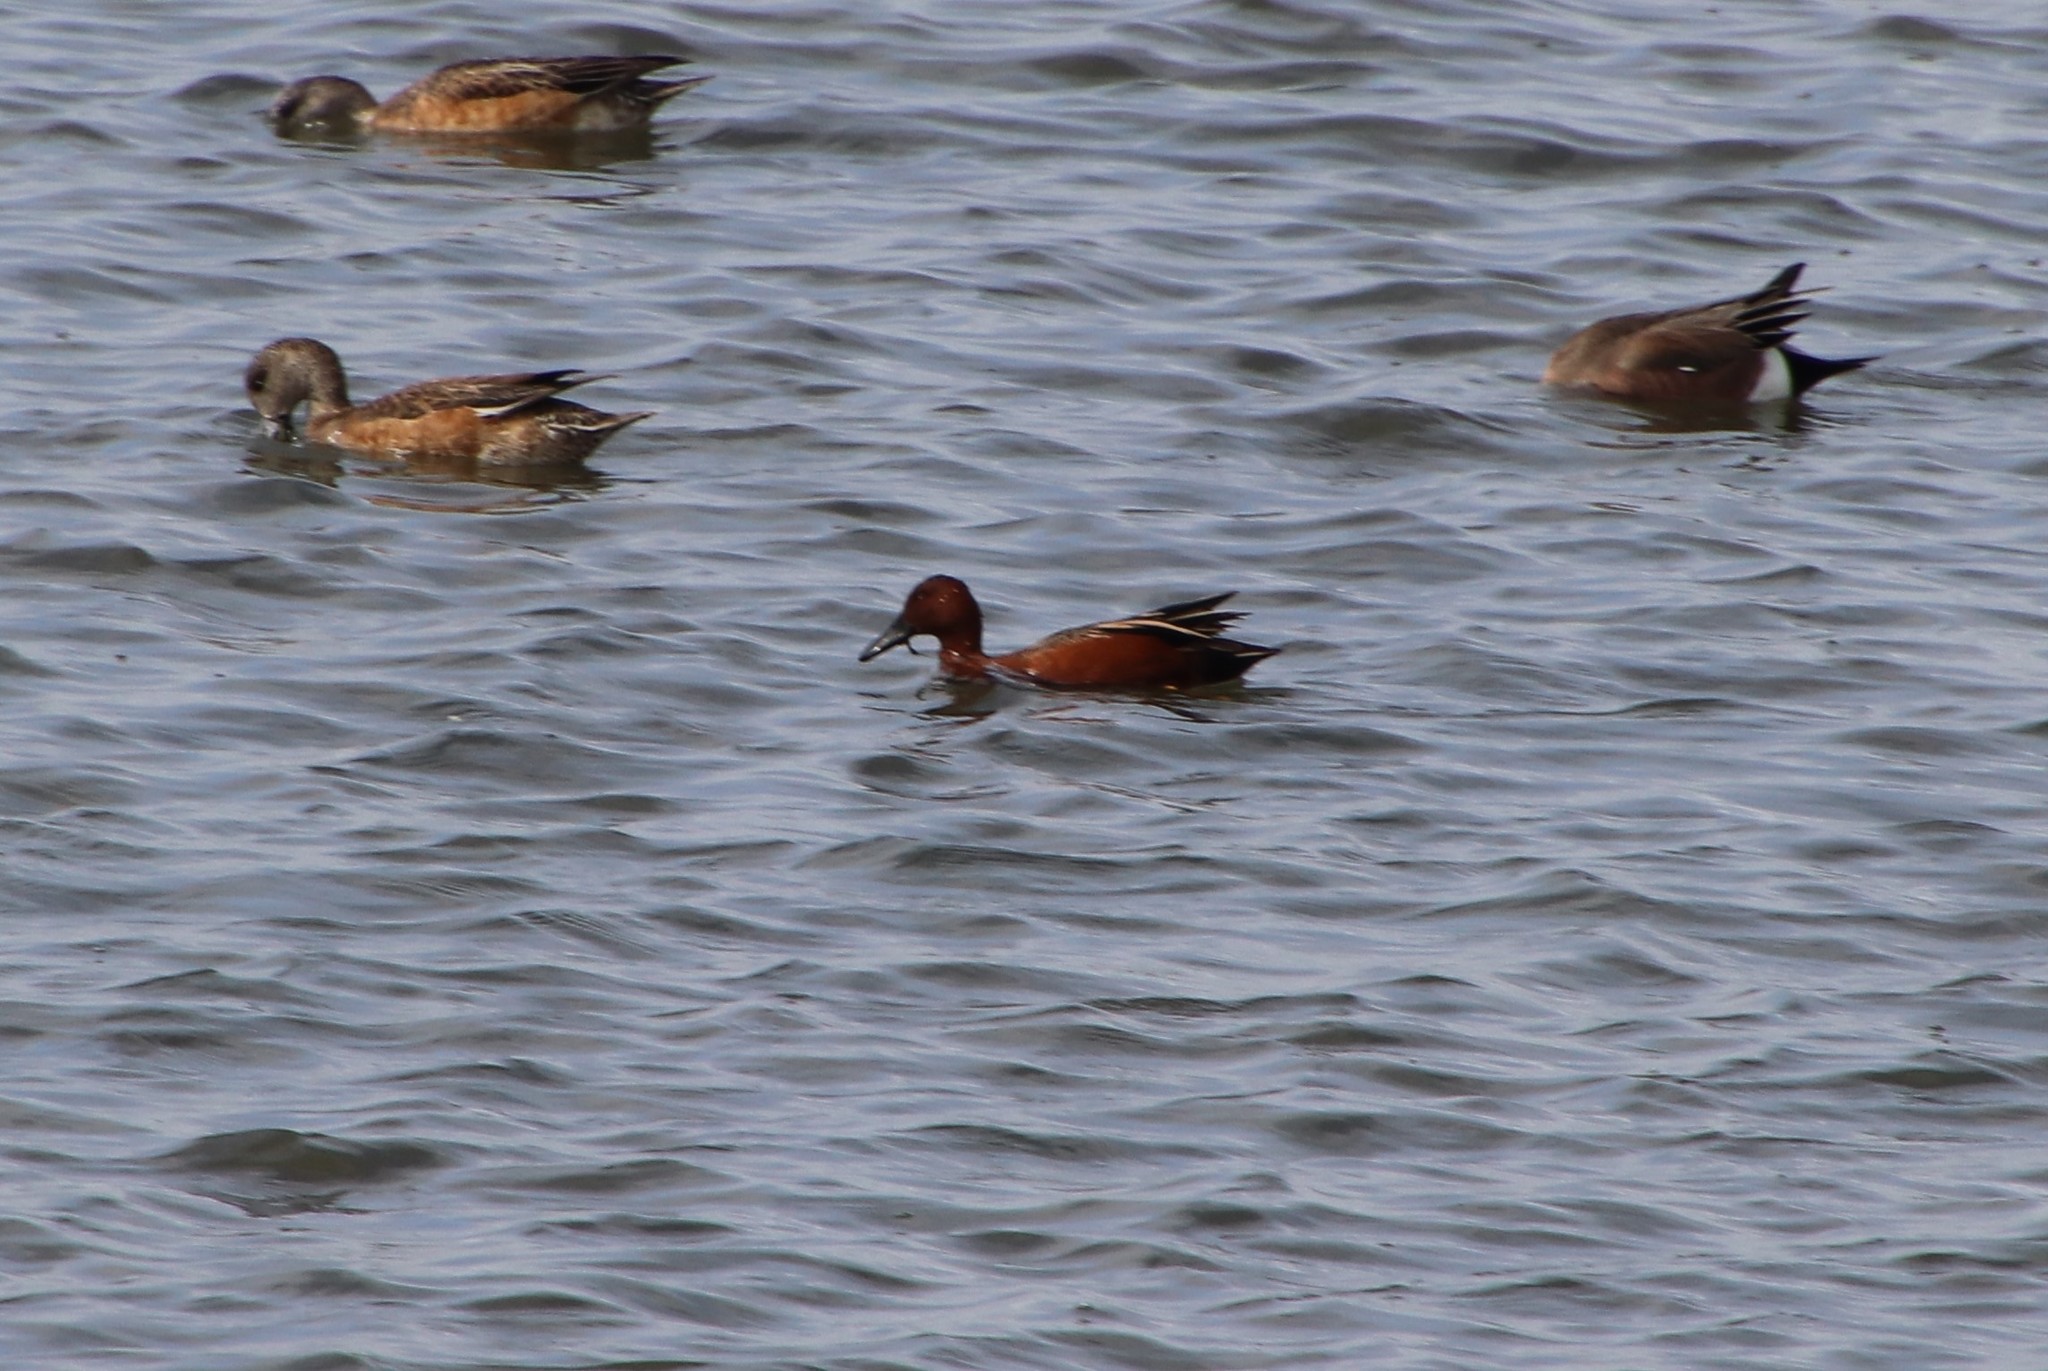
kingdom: Animalia
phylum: Chordata
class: Aves
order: Anseriformes
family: Anatidae
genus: Spatula
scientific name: Spatula cyanoptera
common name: Cinnamon teal
